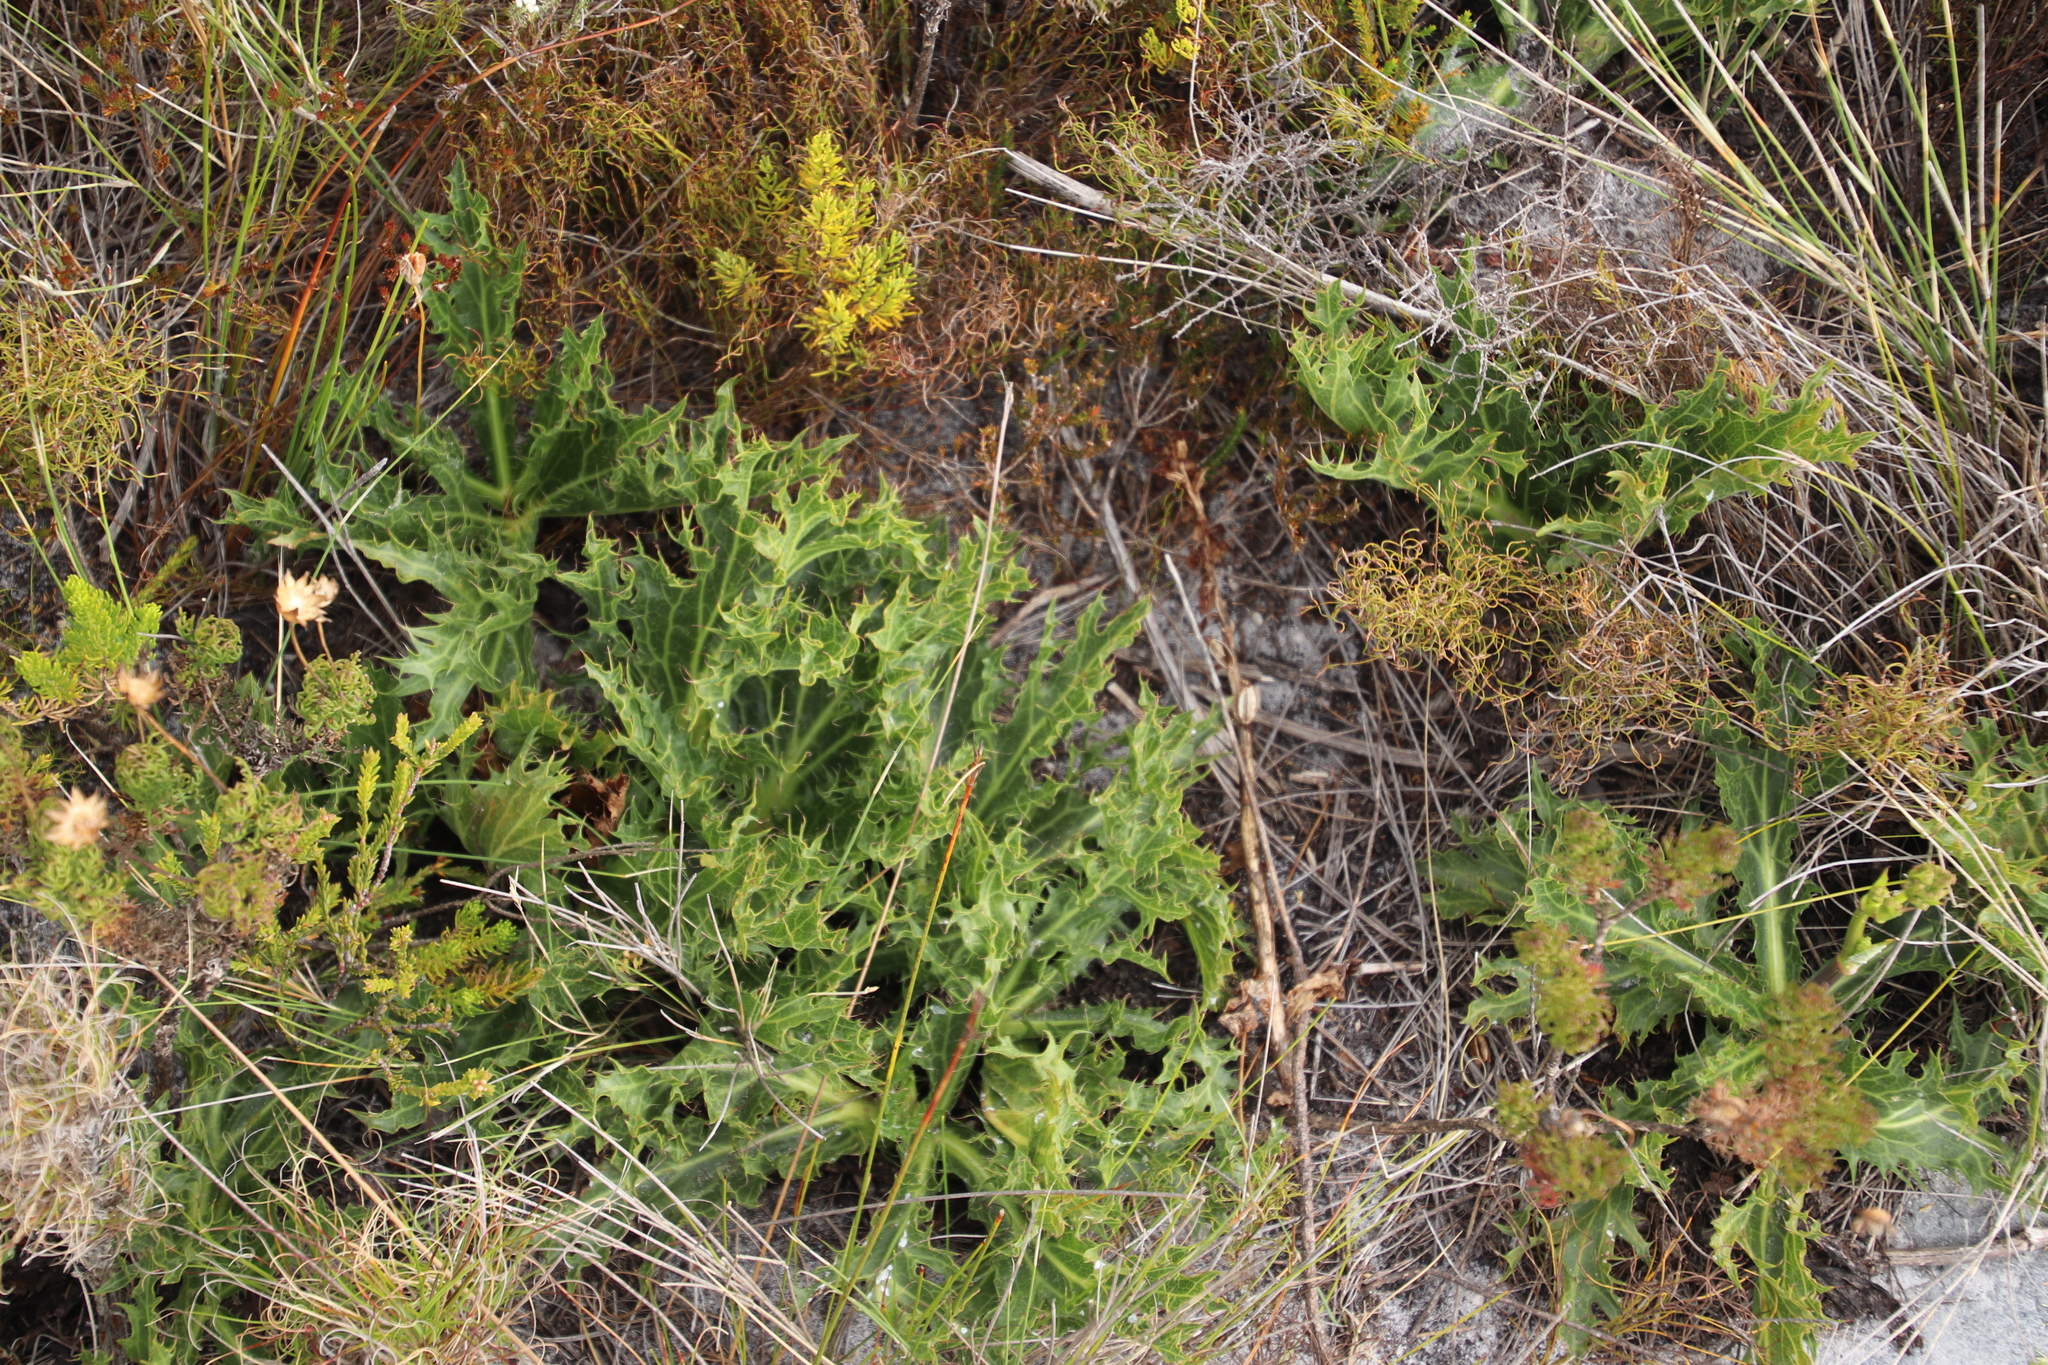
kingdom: Plantae
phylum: Tracheophyta
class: Magnoliopsida
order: Apiales
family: Apiaceae
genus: Lichtensteinia
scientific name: Lichtensteinia lacera
